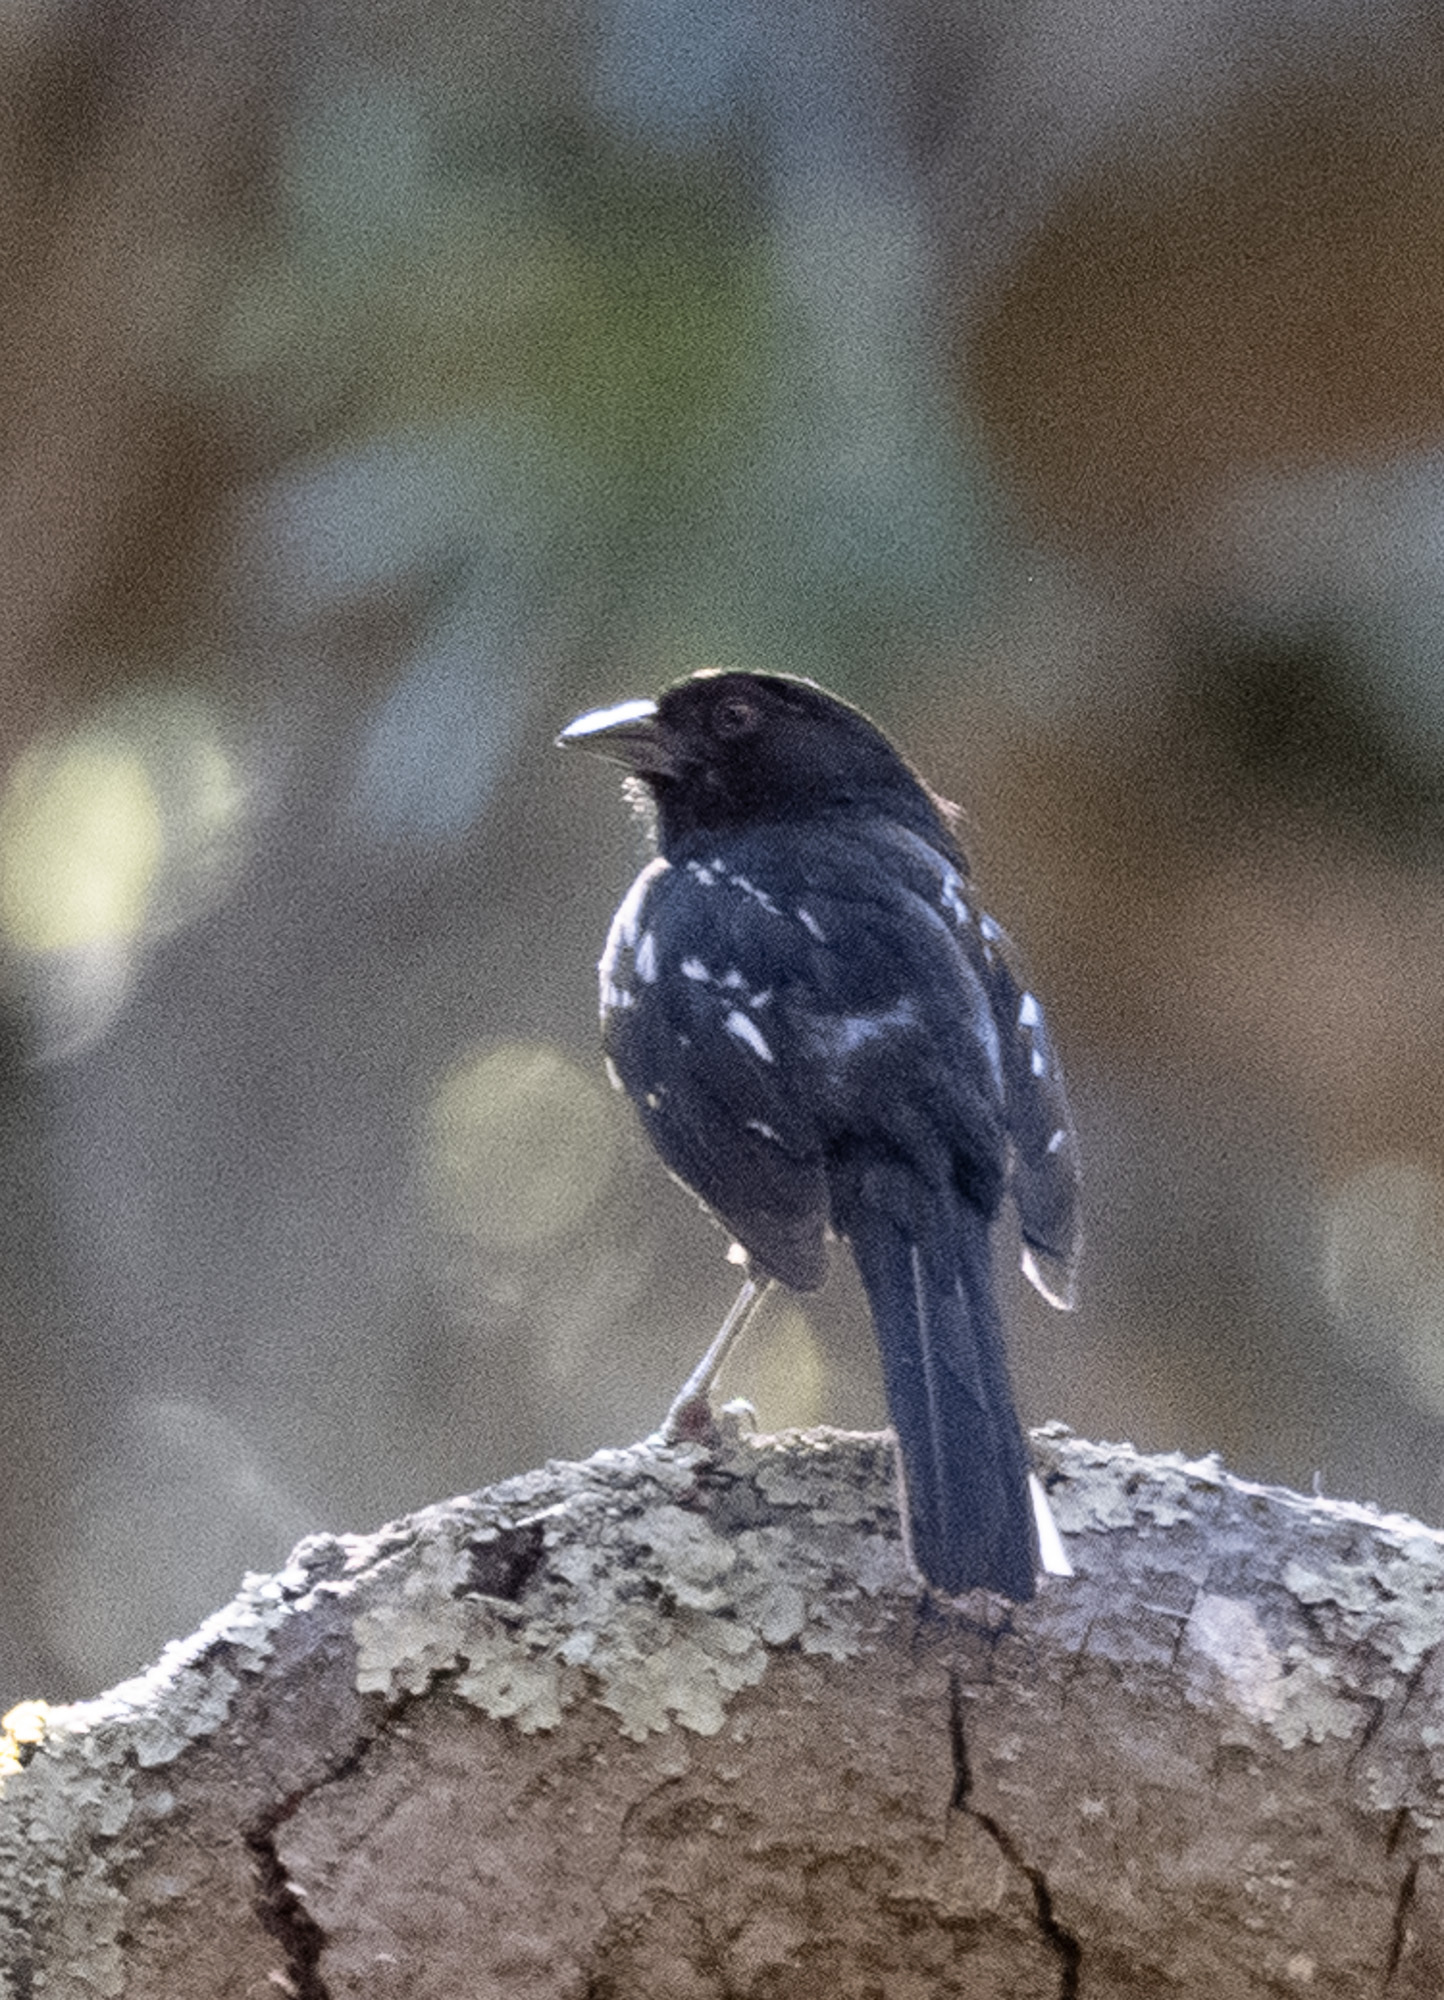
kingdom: Animalia
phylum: Chordata
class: Aves
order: Passeriformes
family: Passerellidae
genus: Pipilo
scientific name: Pipilo maculatus
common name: Spotted towhee
